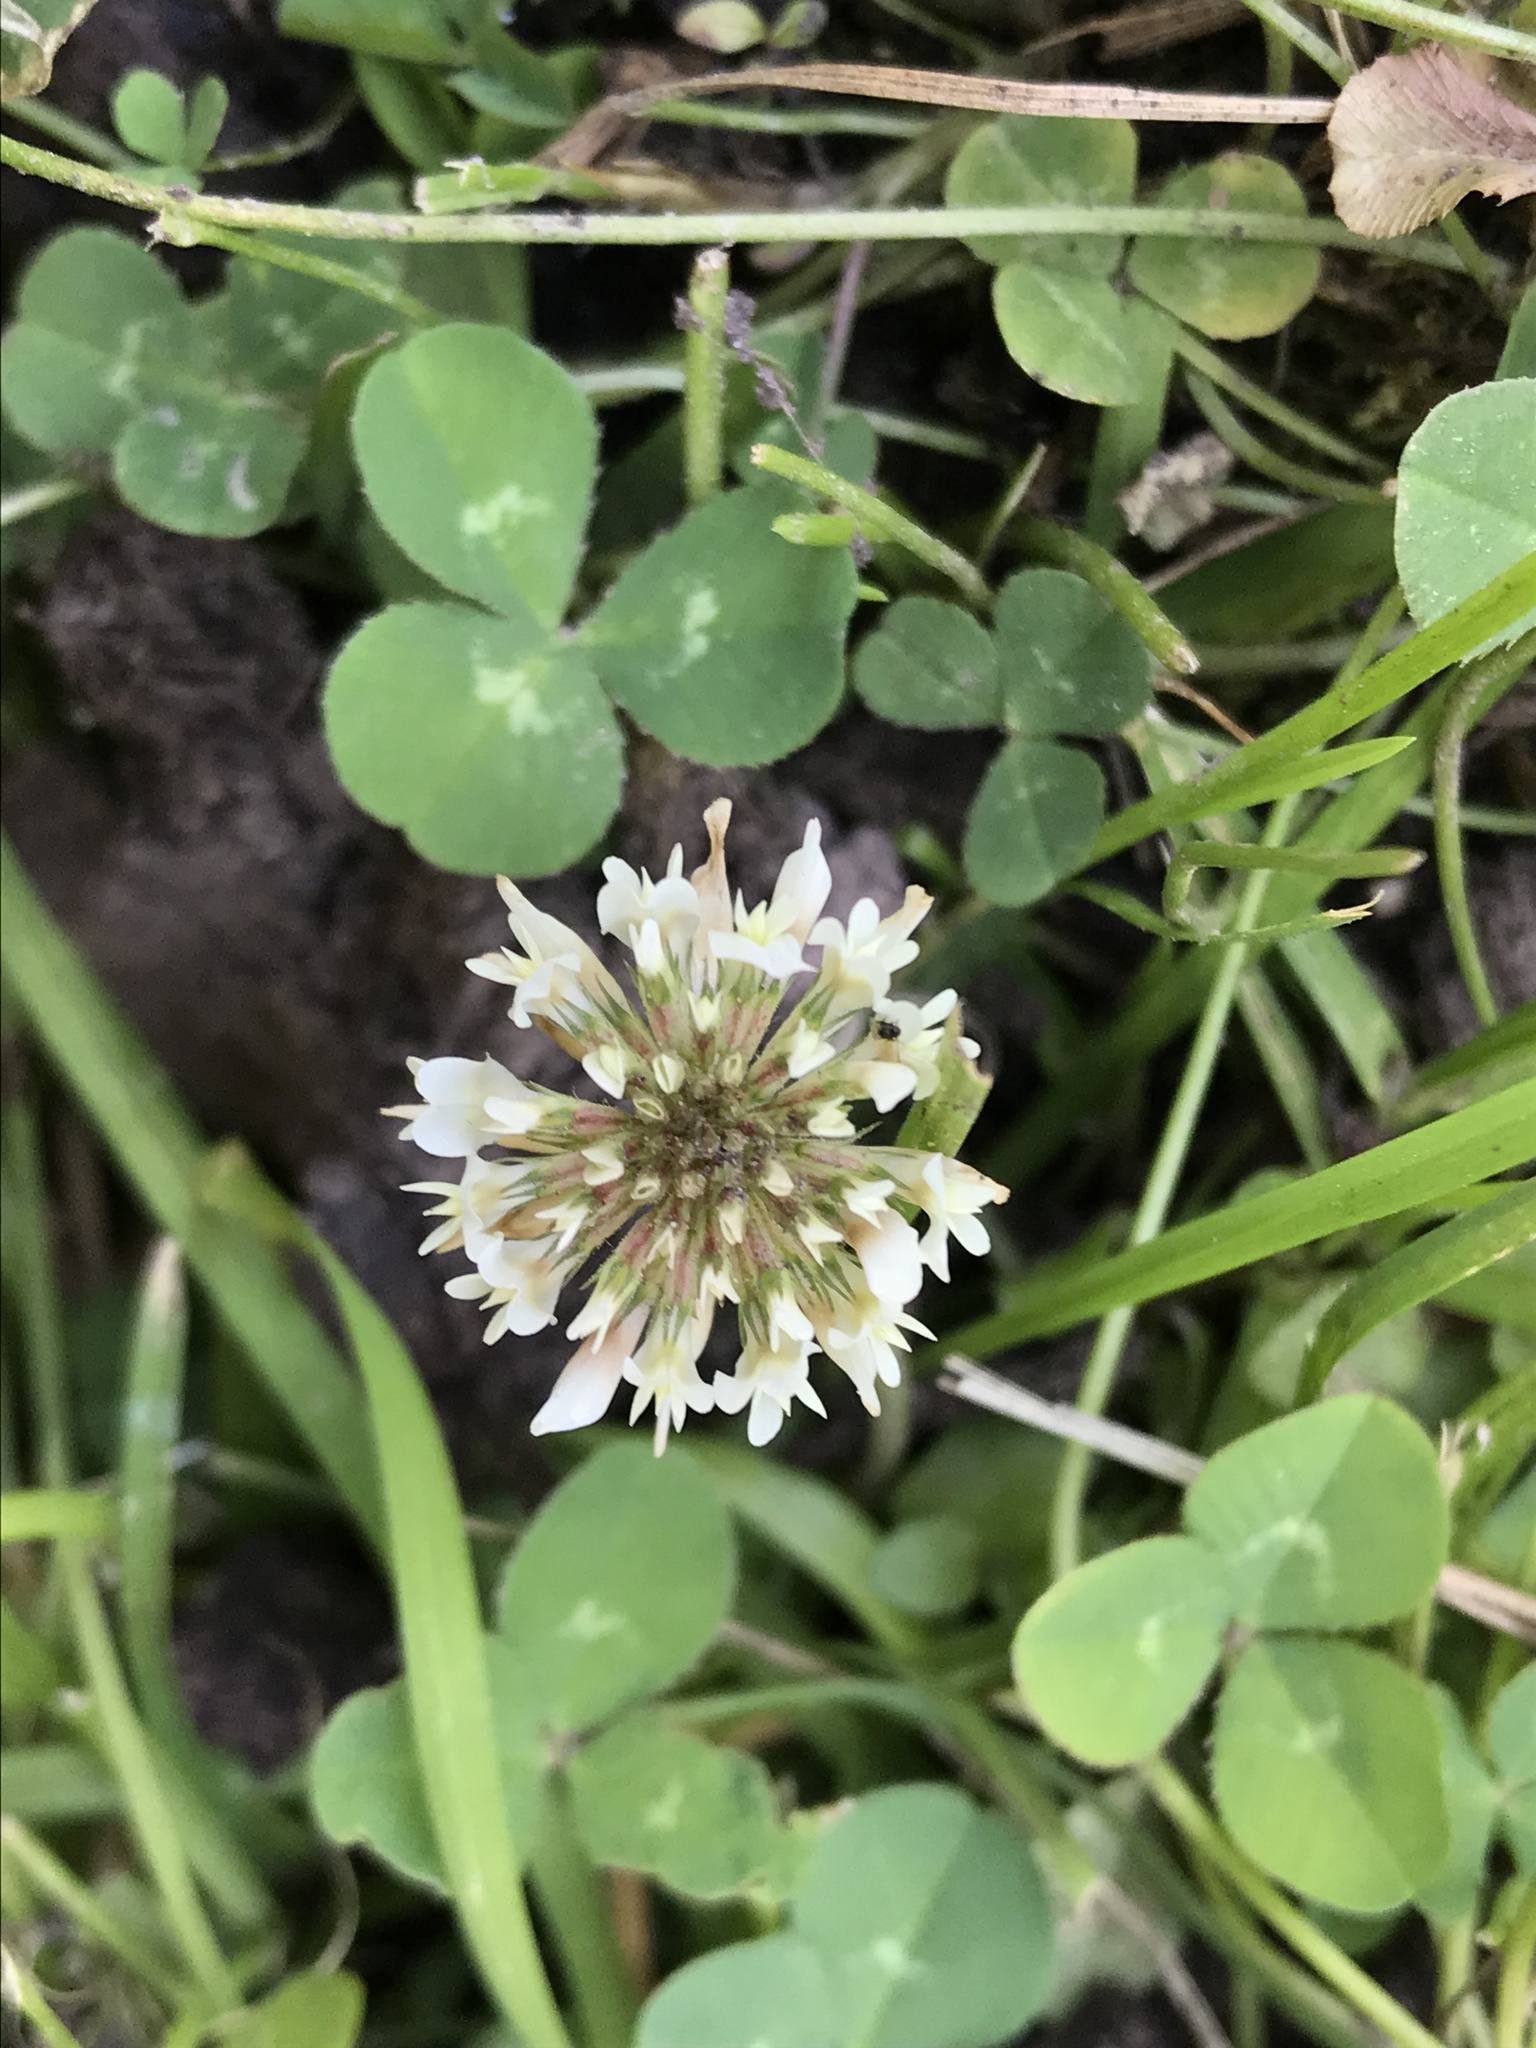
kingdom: Plantae
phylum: Tracheophyta
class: Magnoliopsida
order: Fabales
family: Fabaceae
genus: Trifolium
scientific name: Trifolium repens
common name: White clover
